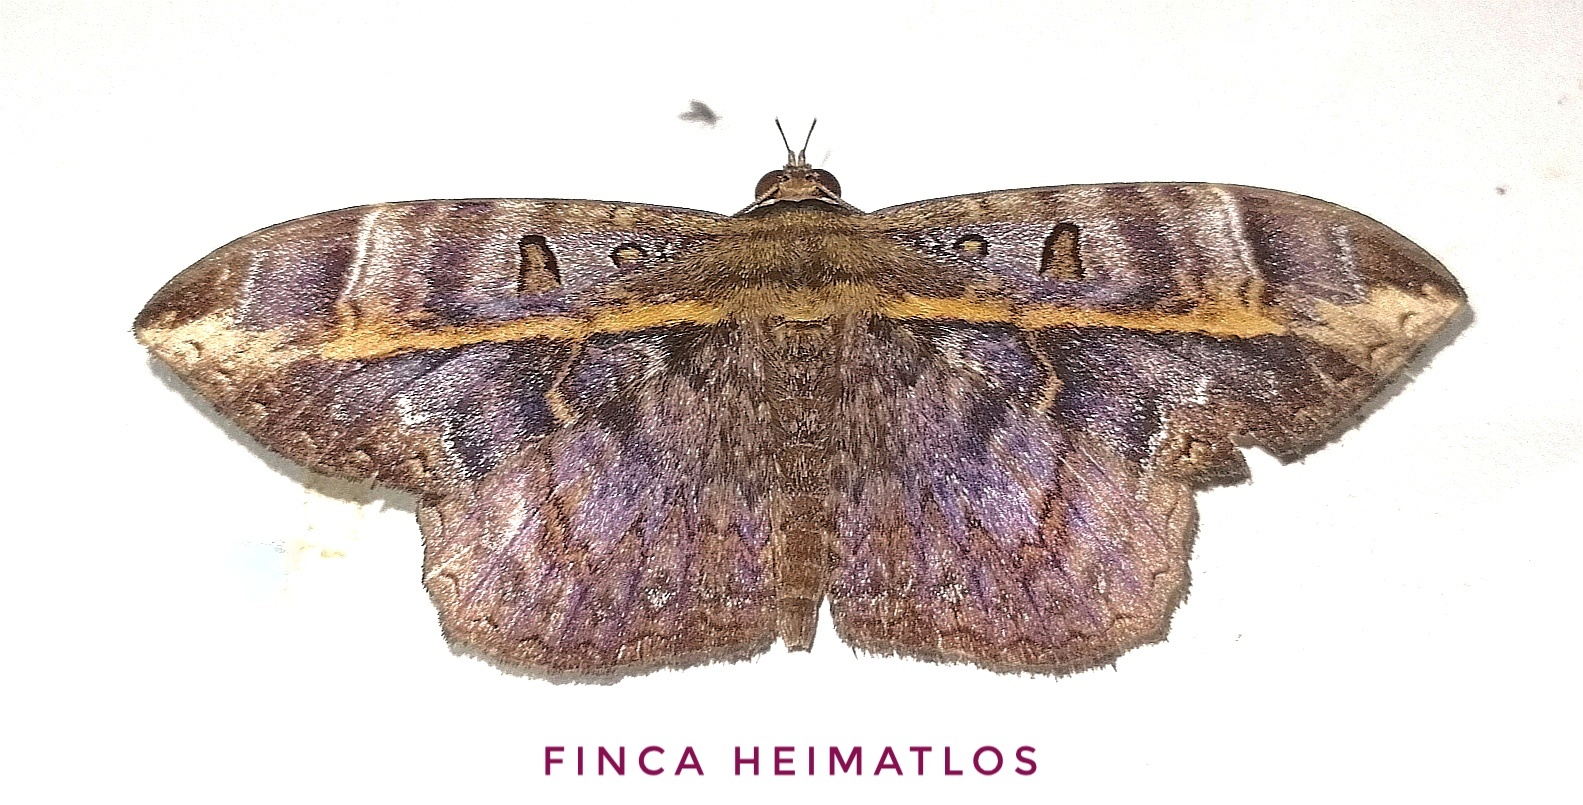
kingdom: Animalia
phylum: Arthropoda
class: Insecta
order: Lepidoptera
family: Erebidae
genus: Hemeroblemma
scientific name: Hemeroblemma ochrolinea
